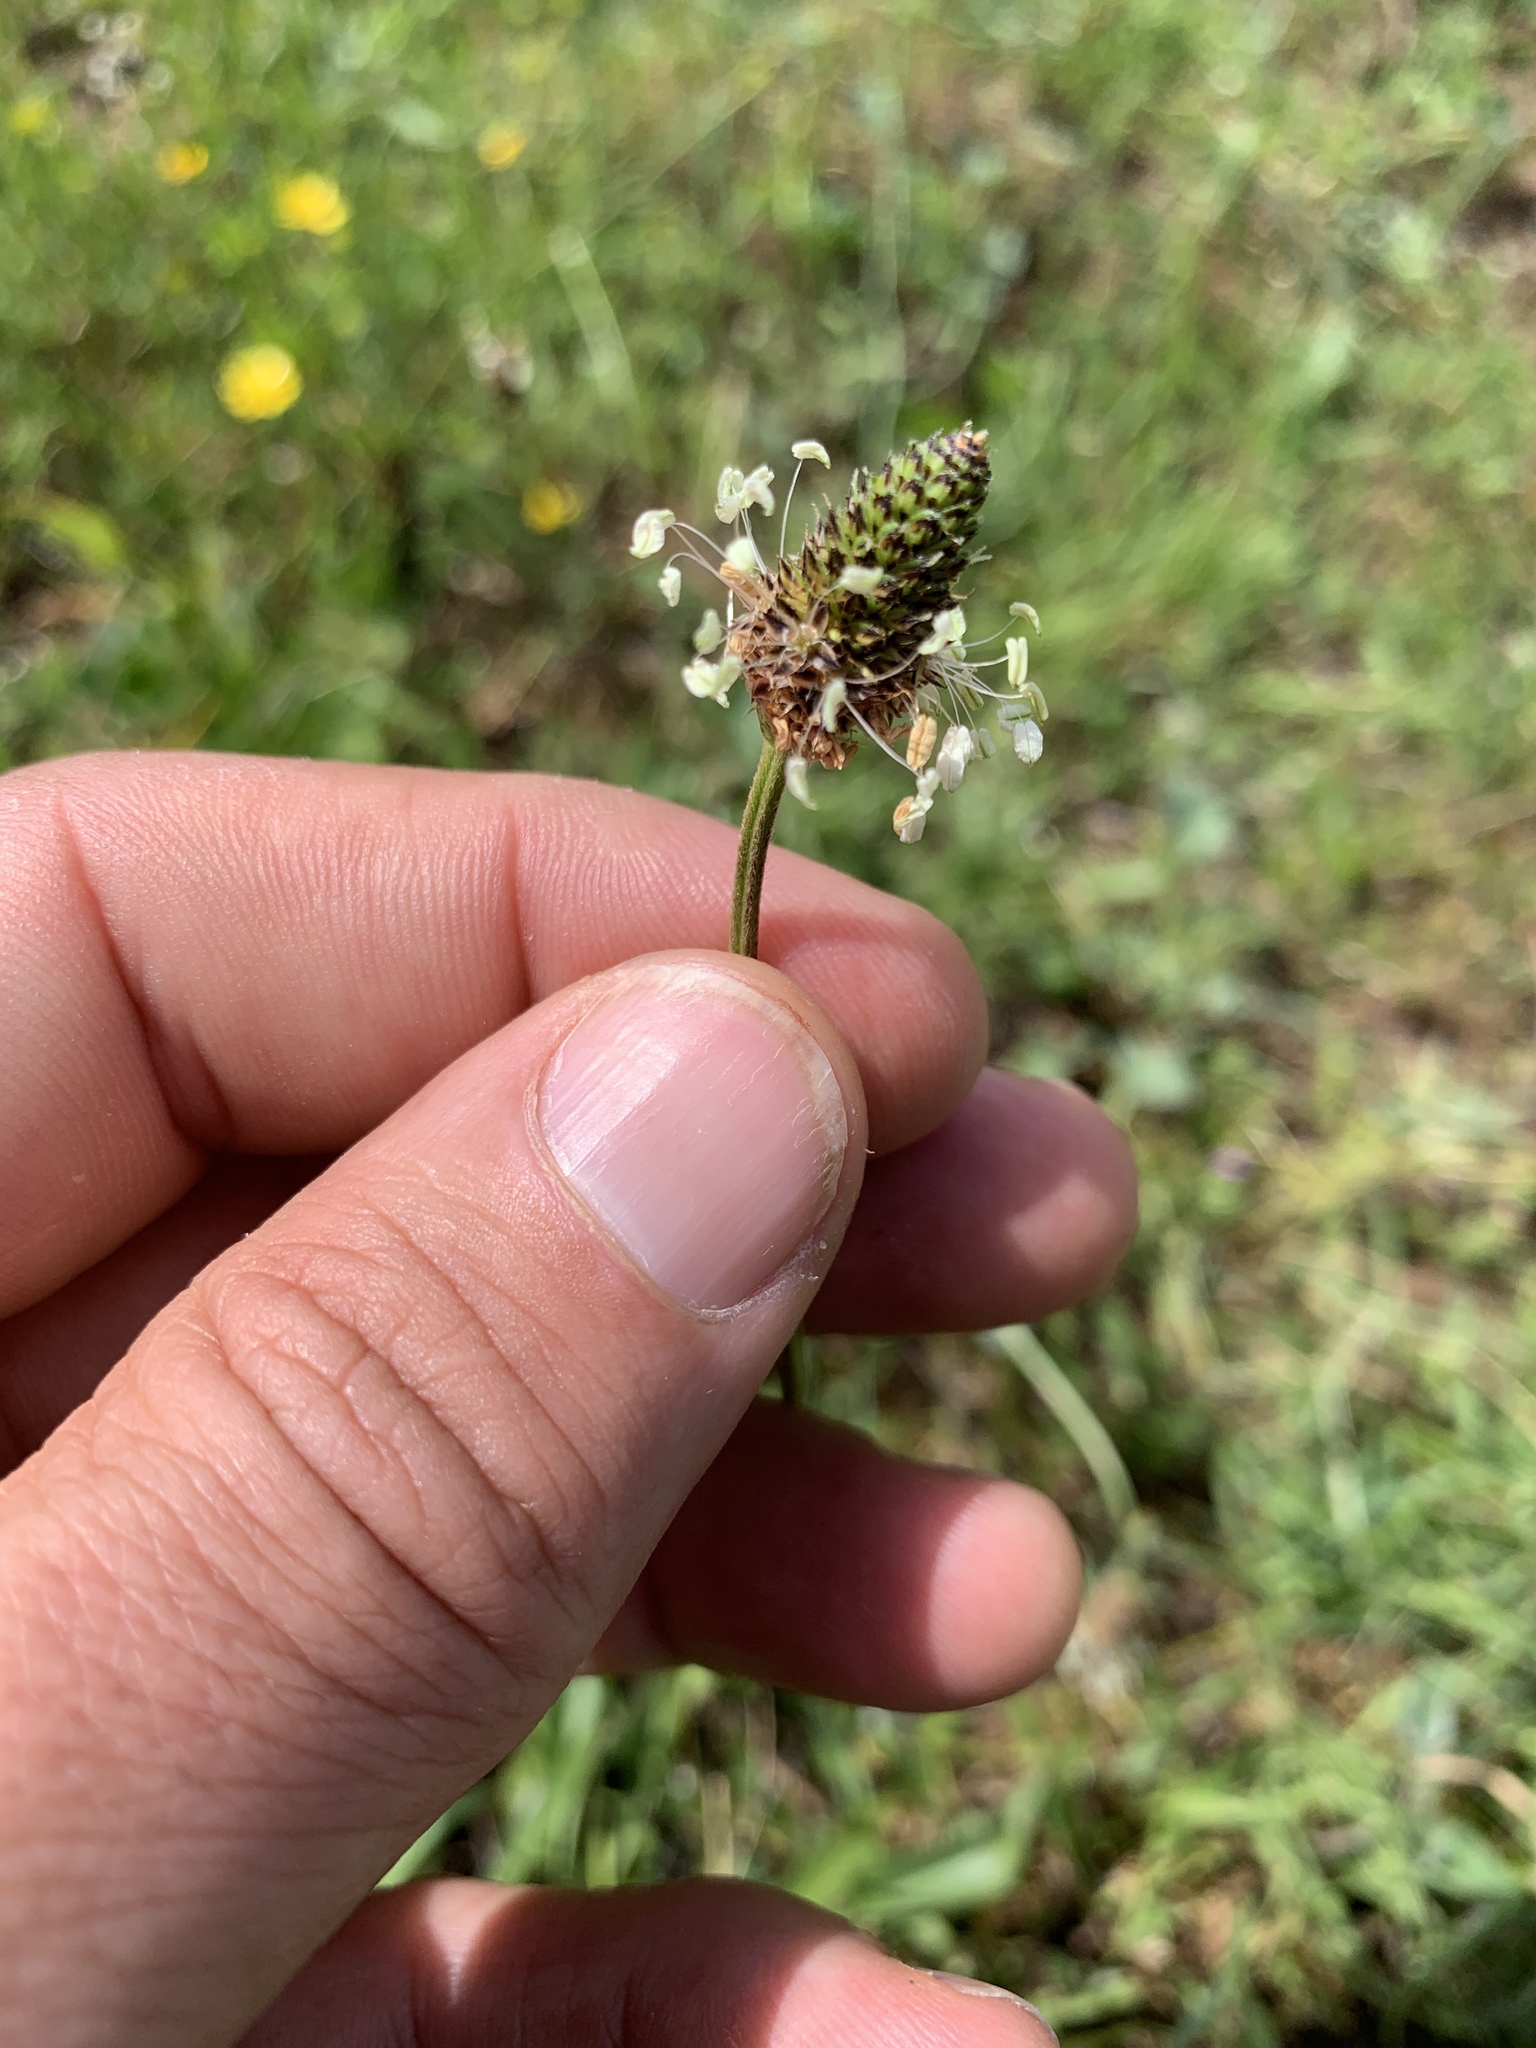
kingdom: Plantae
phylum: Tracheophyta
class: Magnoliopsida
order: Lamiales
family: Plantaginaceae
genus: Plantago
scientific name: Plantago lanceolata
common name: Ribwort plantain
